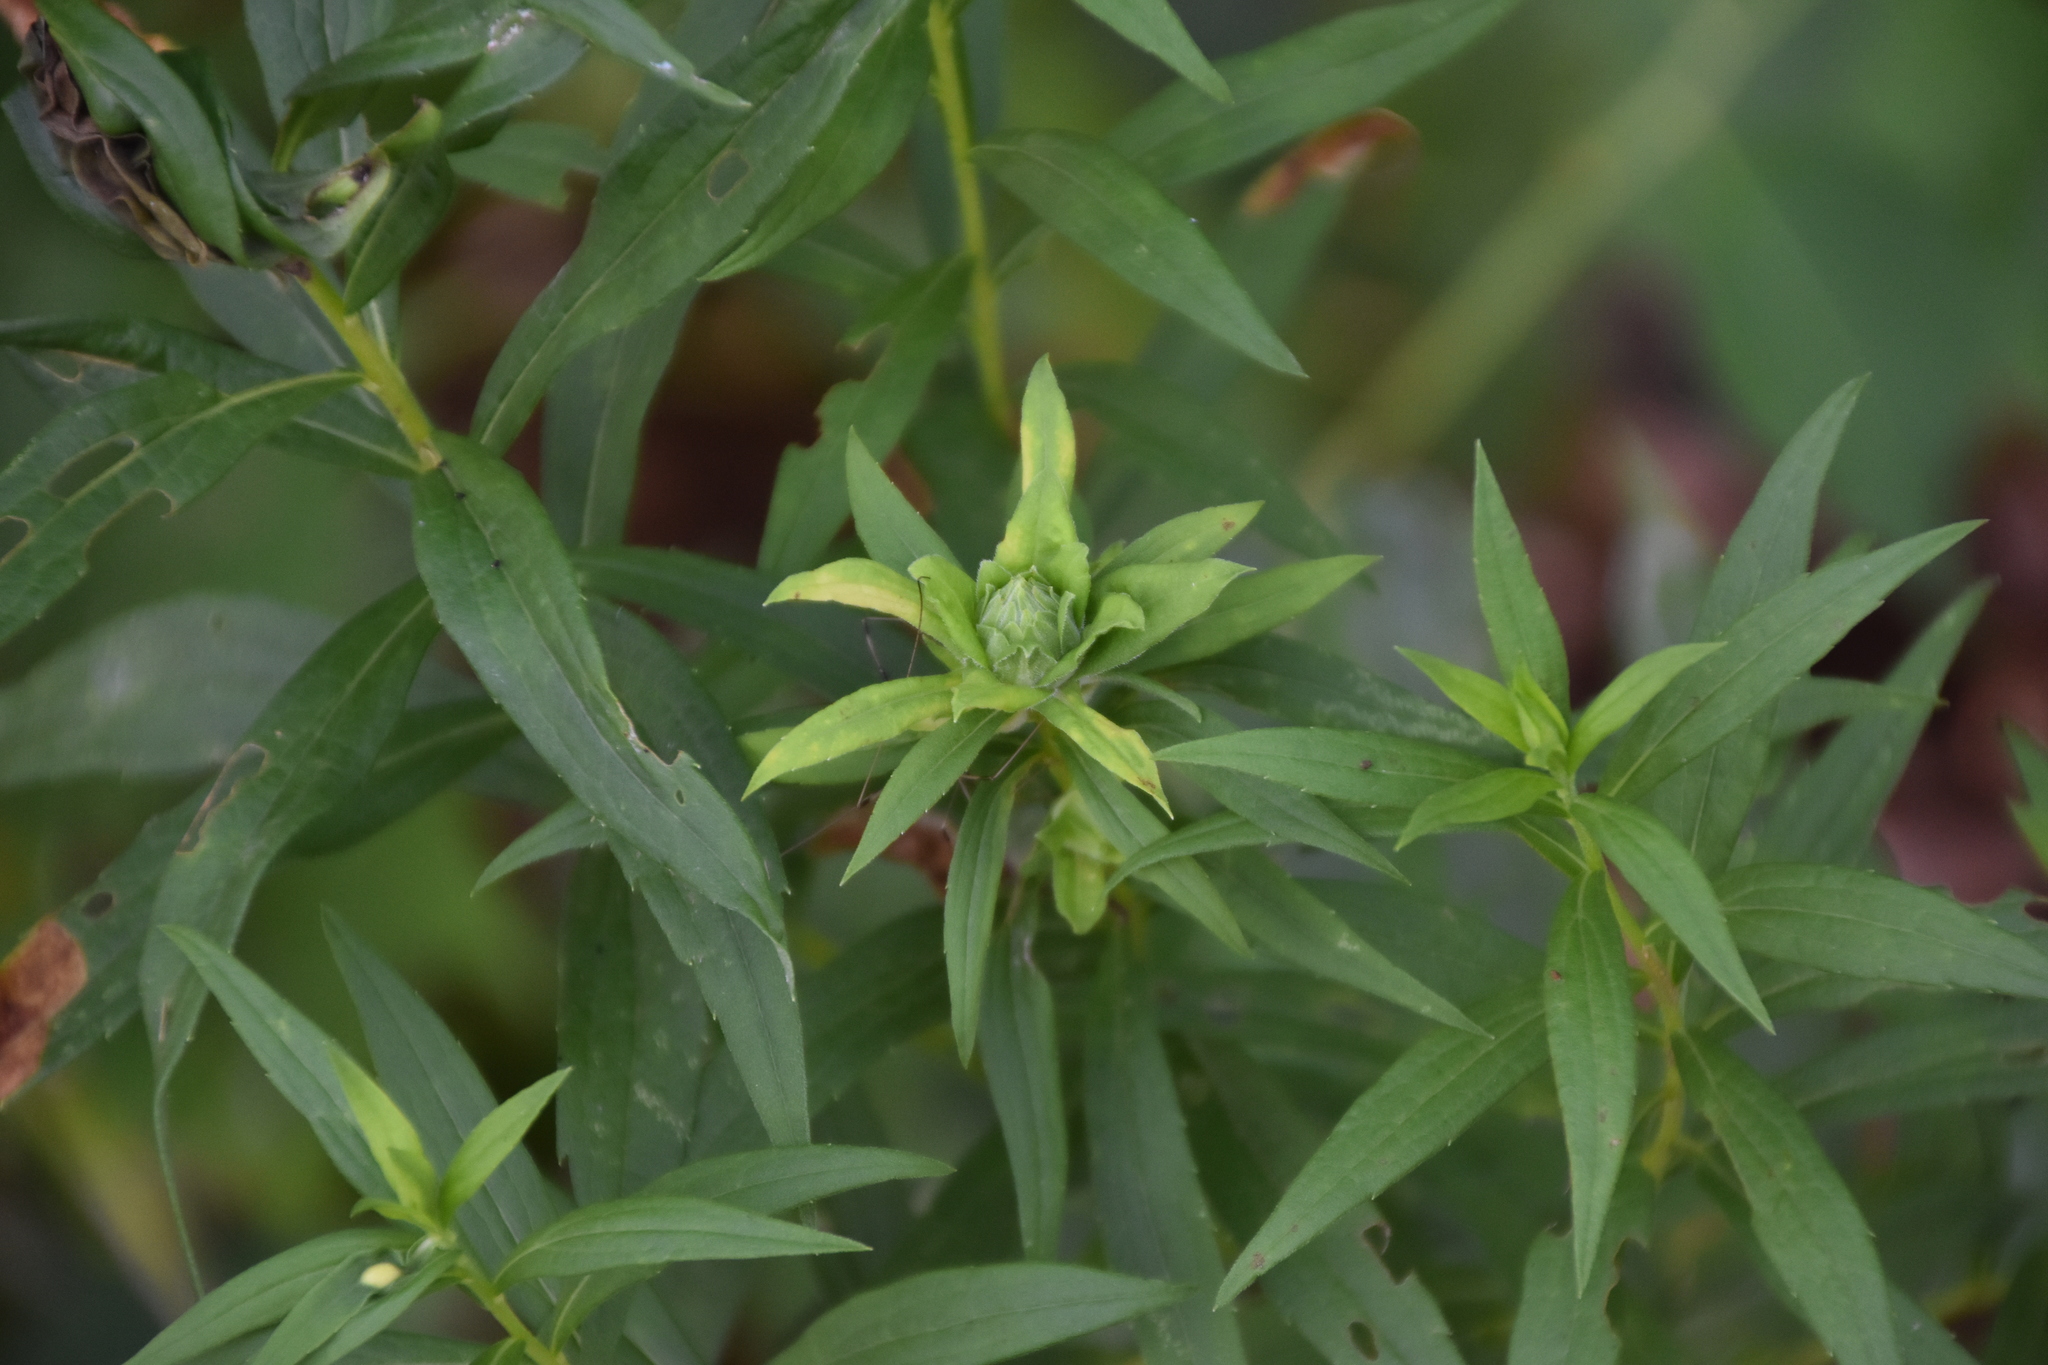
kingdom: Plantae
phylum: Tracheophyta
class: Magnoliopsida
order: Asterales
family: Asteraceae
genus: Solidago
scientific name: Solidago canadensis
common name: Canada goldenrod
